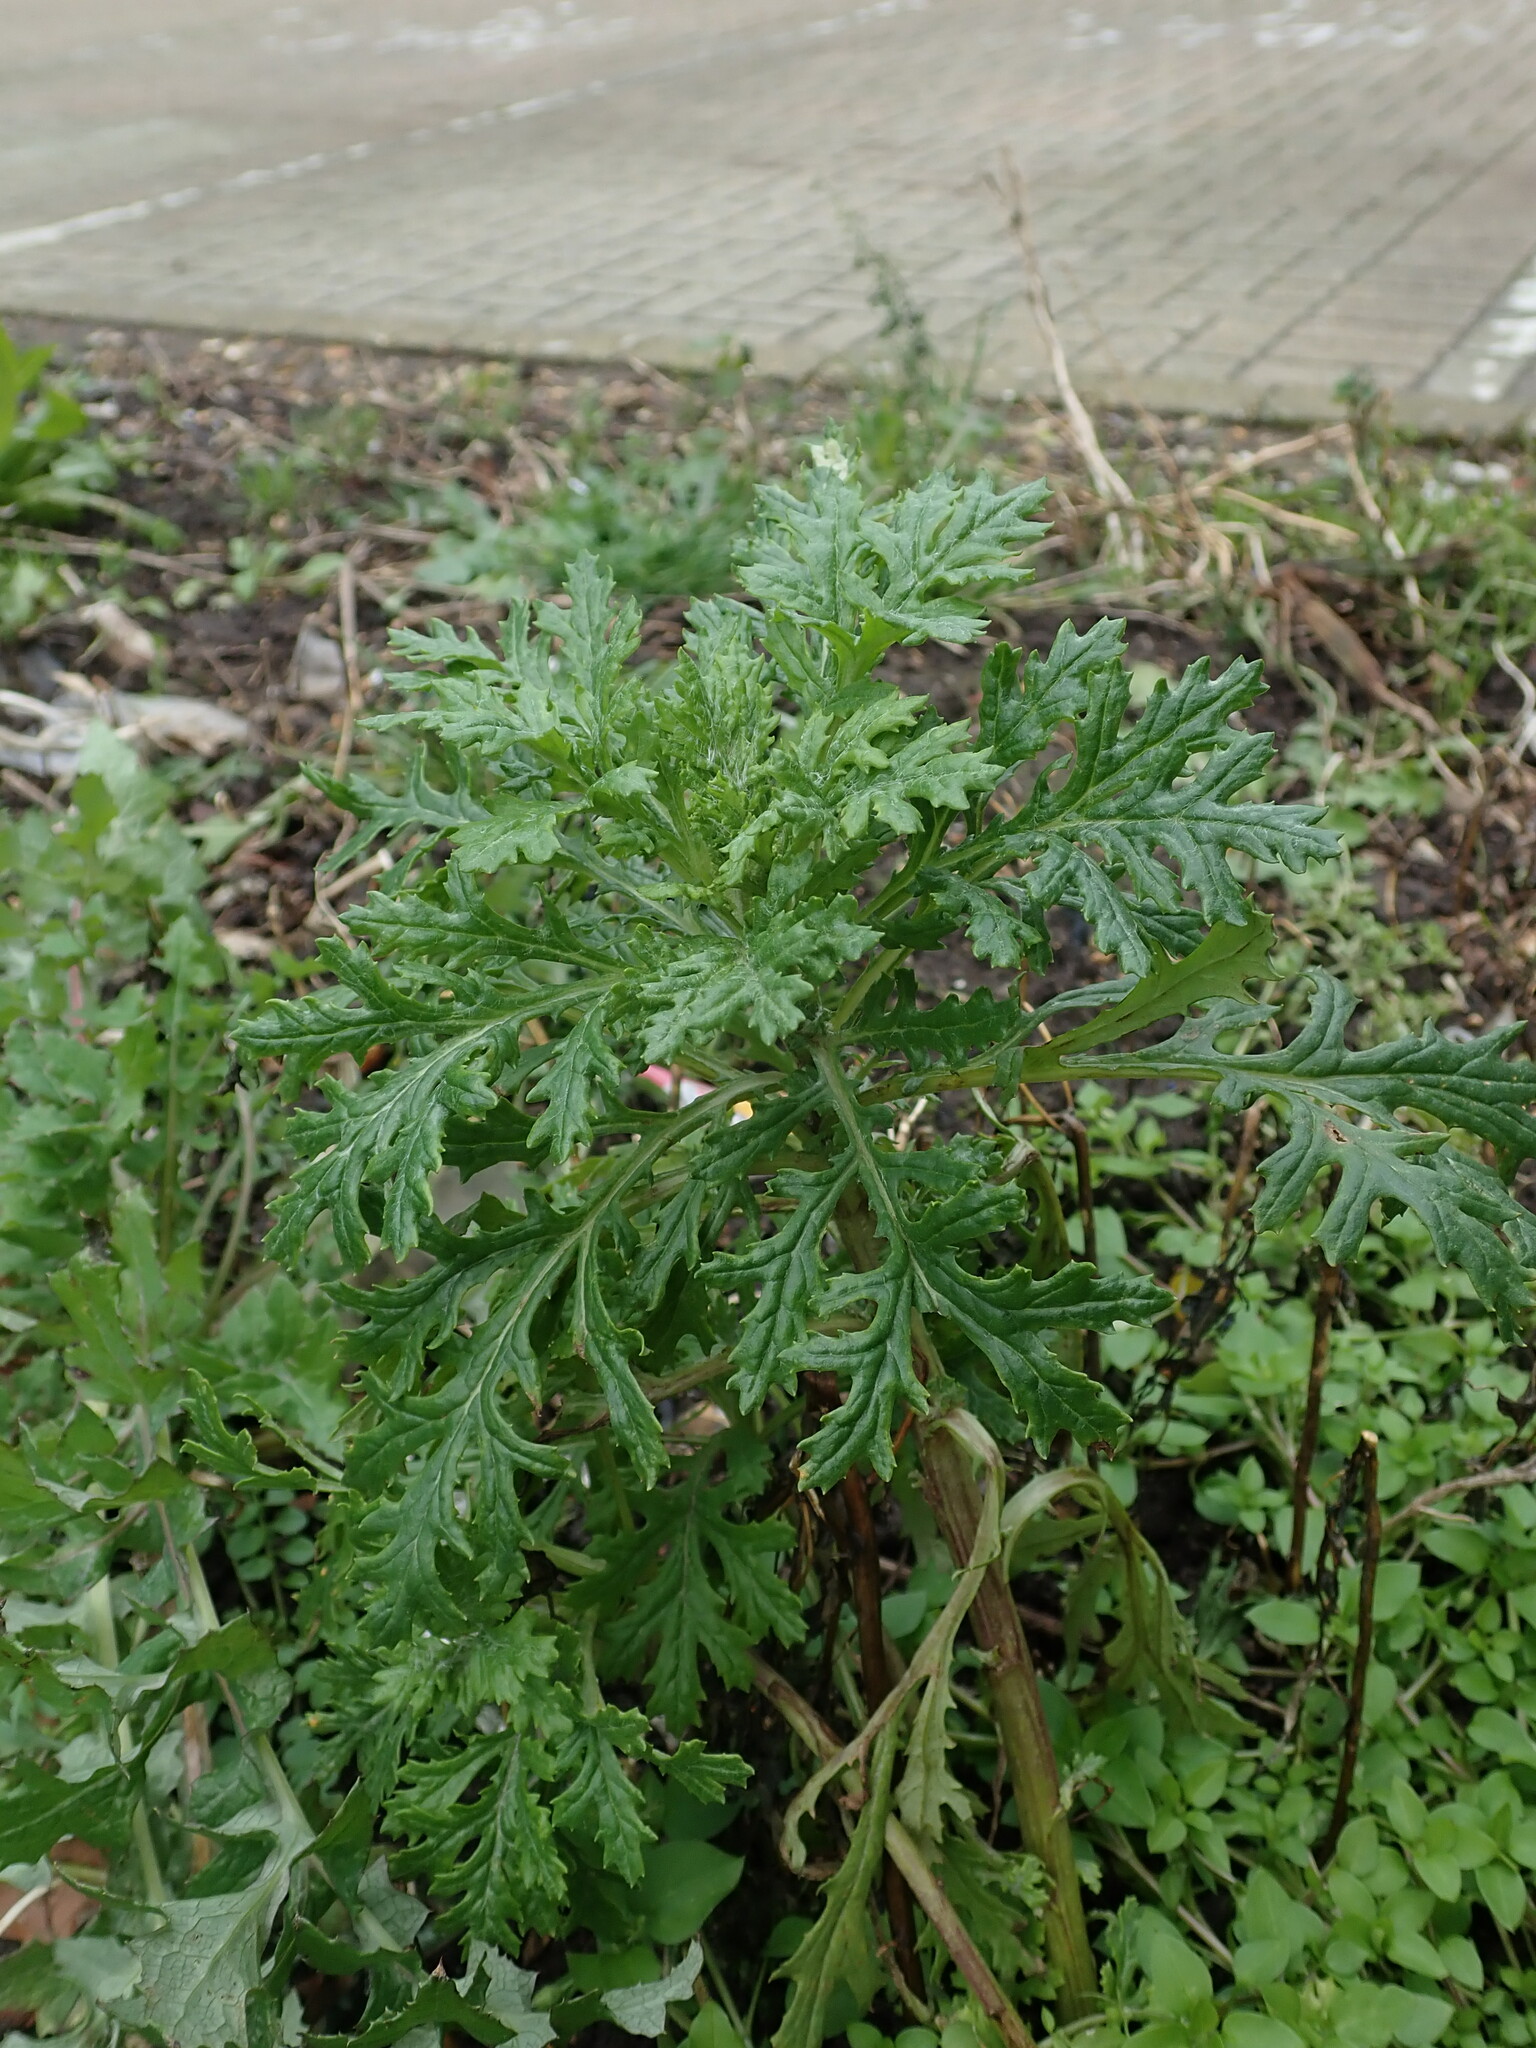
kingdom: Plantae
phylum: Tracheophyta
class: Magnoliopsida
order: Asterales
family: Asteraceae
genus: Senecio
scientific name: Senecio squalidus
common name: Oxford ragwort
